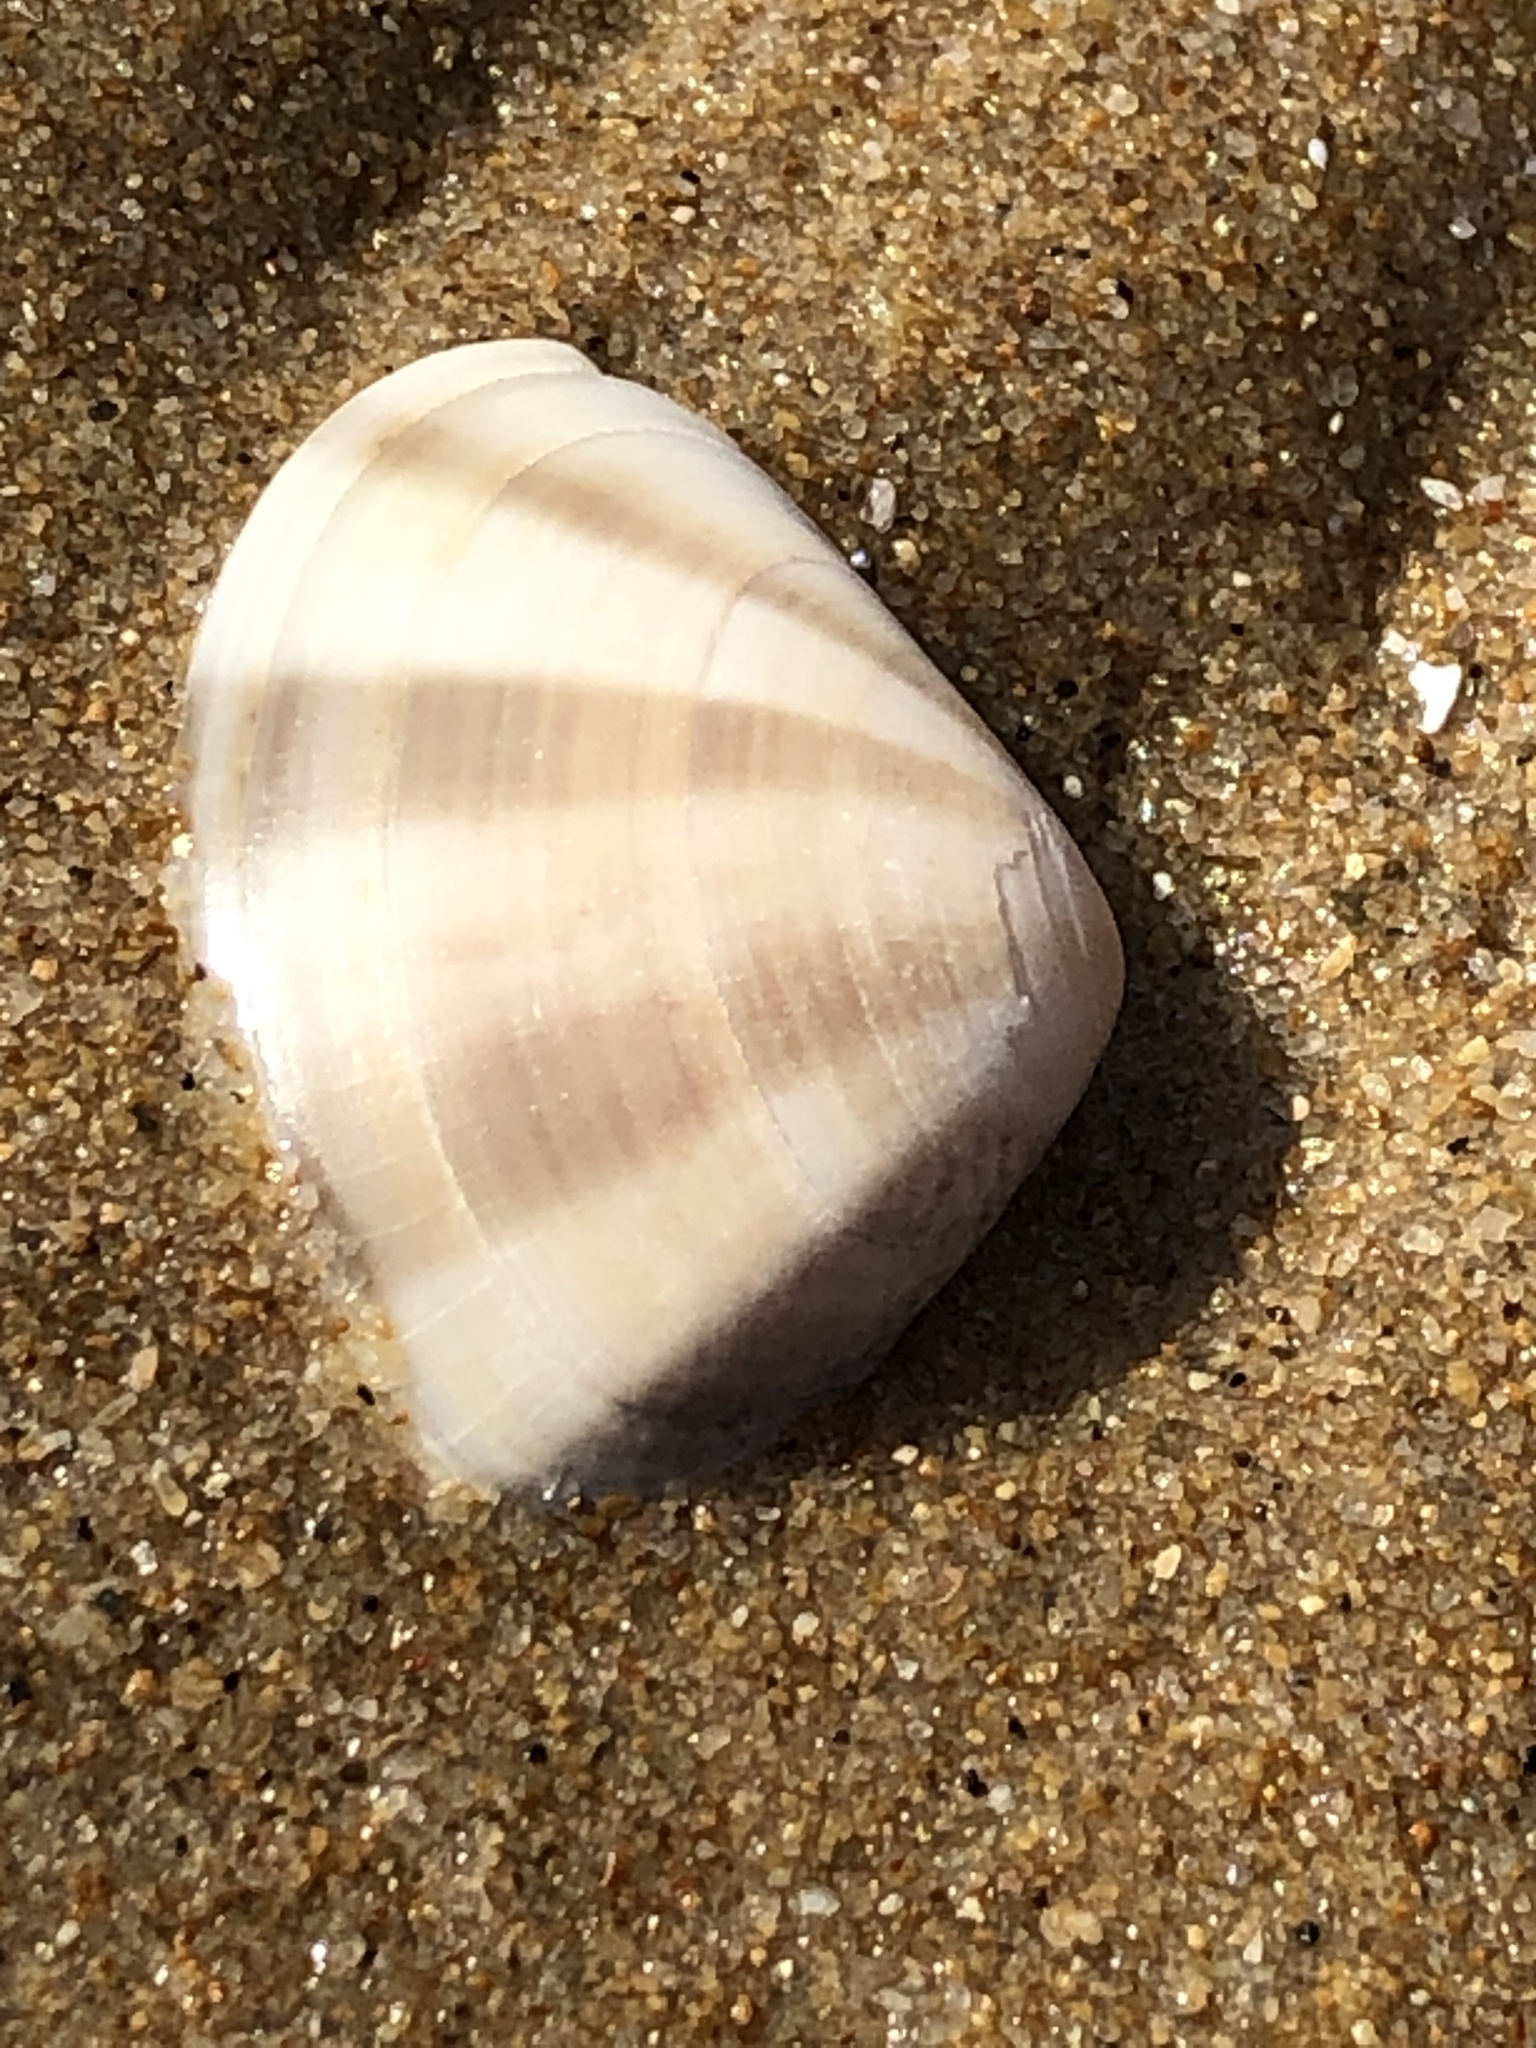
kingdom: Animalia
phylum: Mollusca
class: Bivalvia
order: Venerida
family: Veneridae
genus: Macridiscus
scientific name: Macridiscus multifarius
